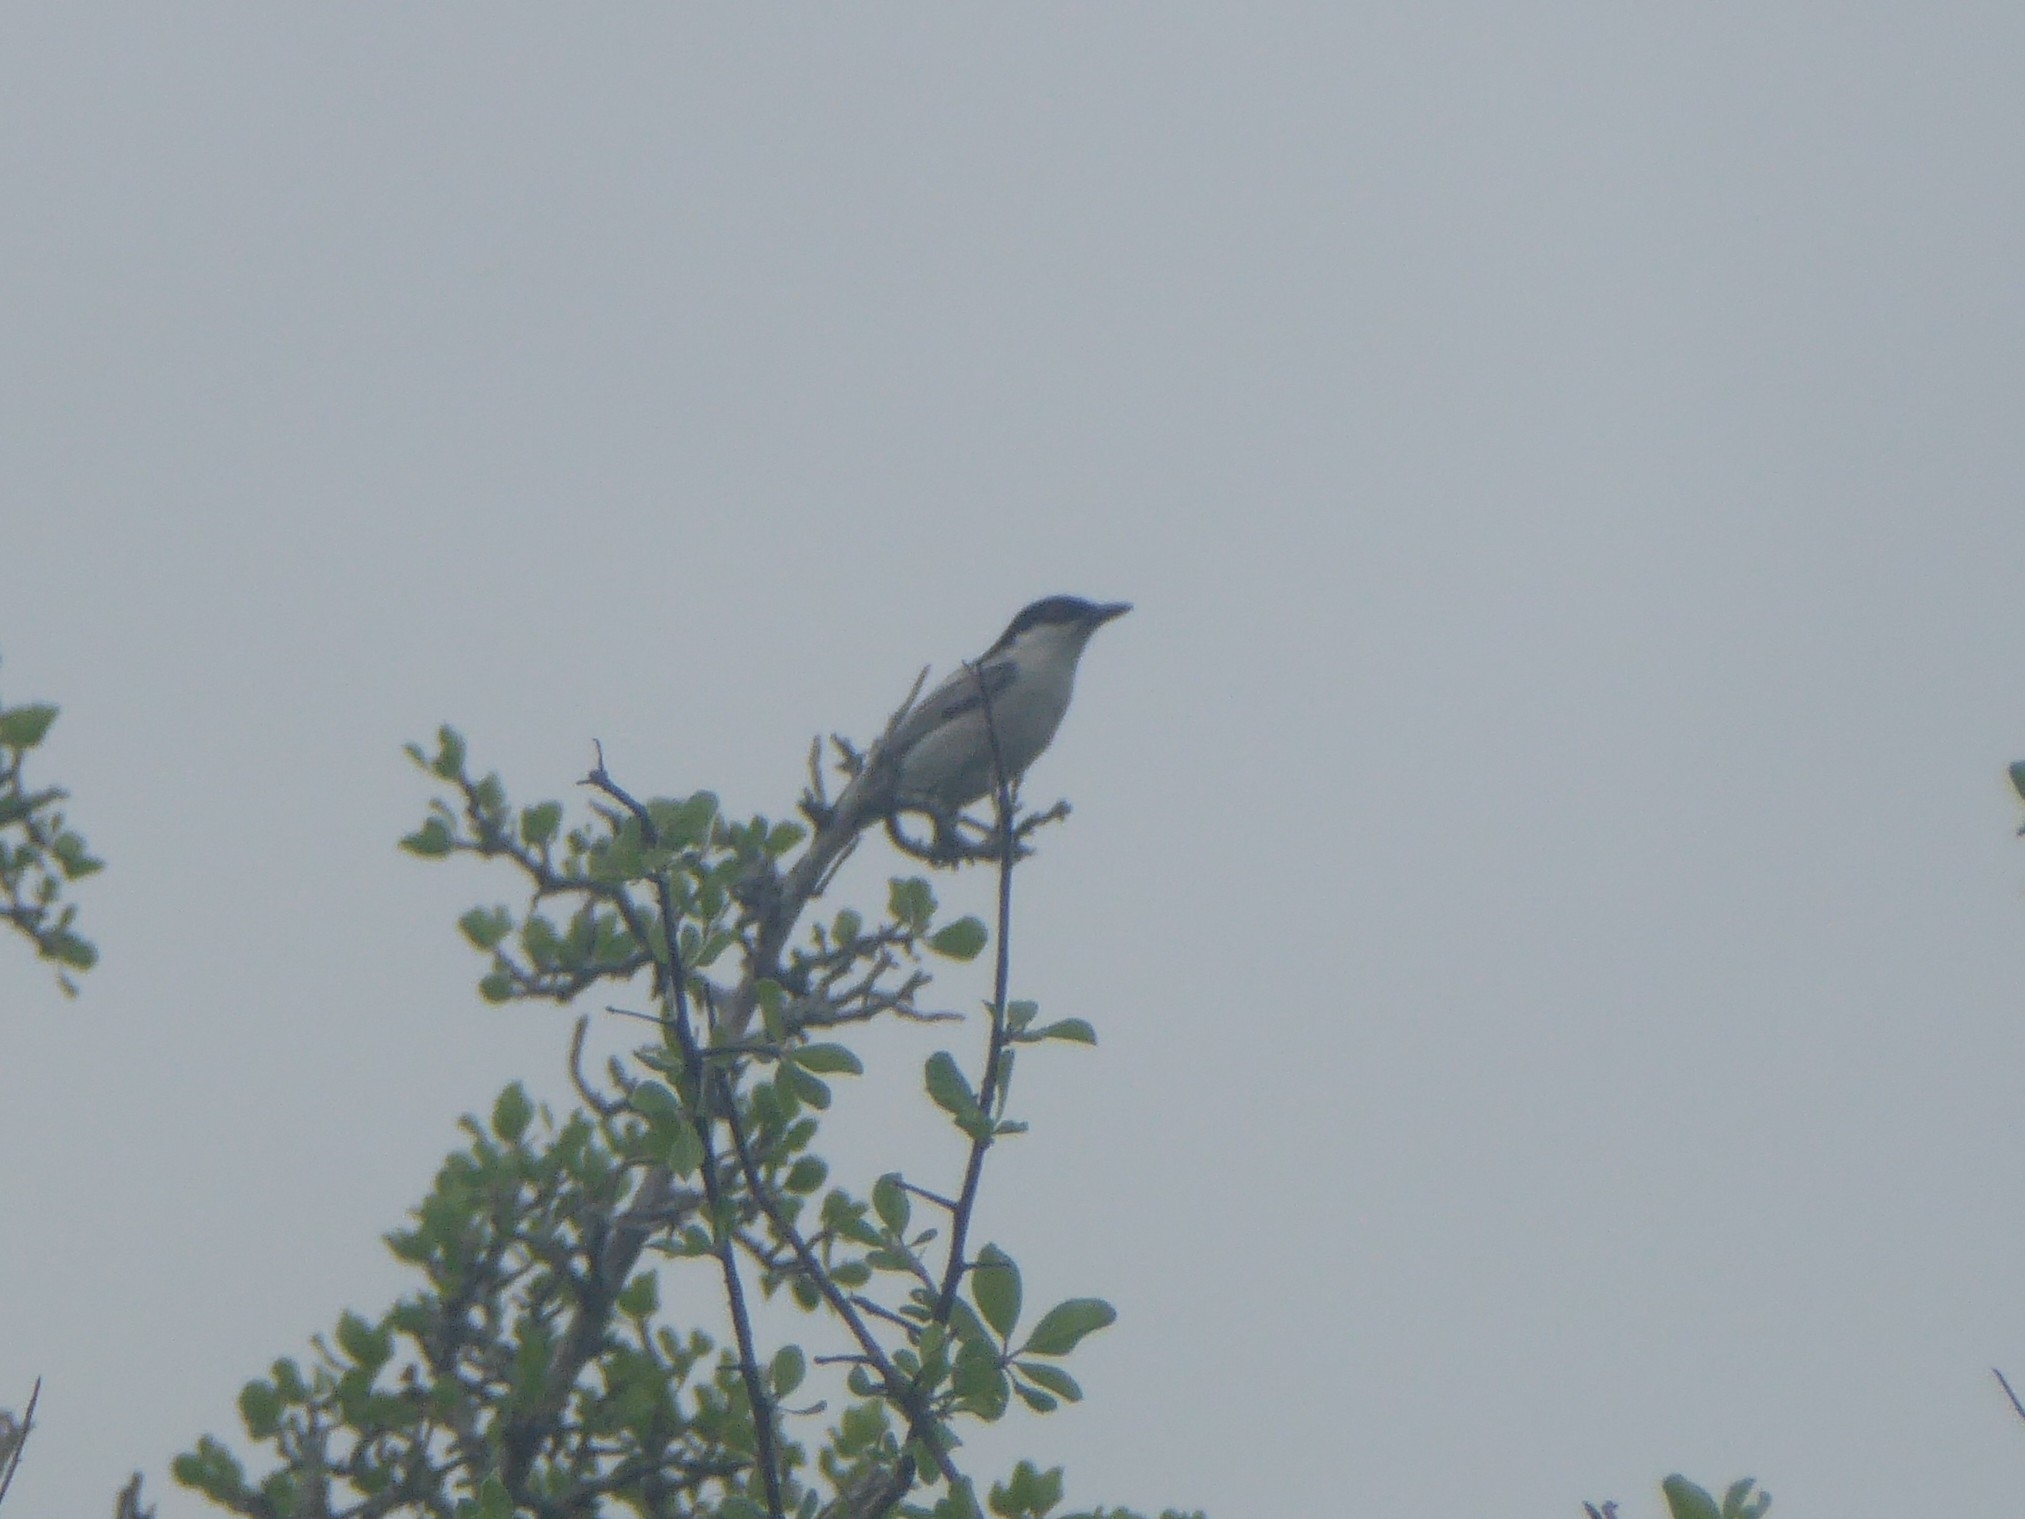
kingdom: Animalia
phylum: Chordata
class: Aves
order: Passeriformes
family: Malaconotidae
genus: Dryoscopus
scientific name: Dryoscopus cubla
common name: Black-backed puffback
